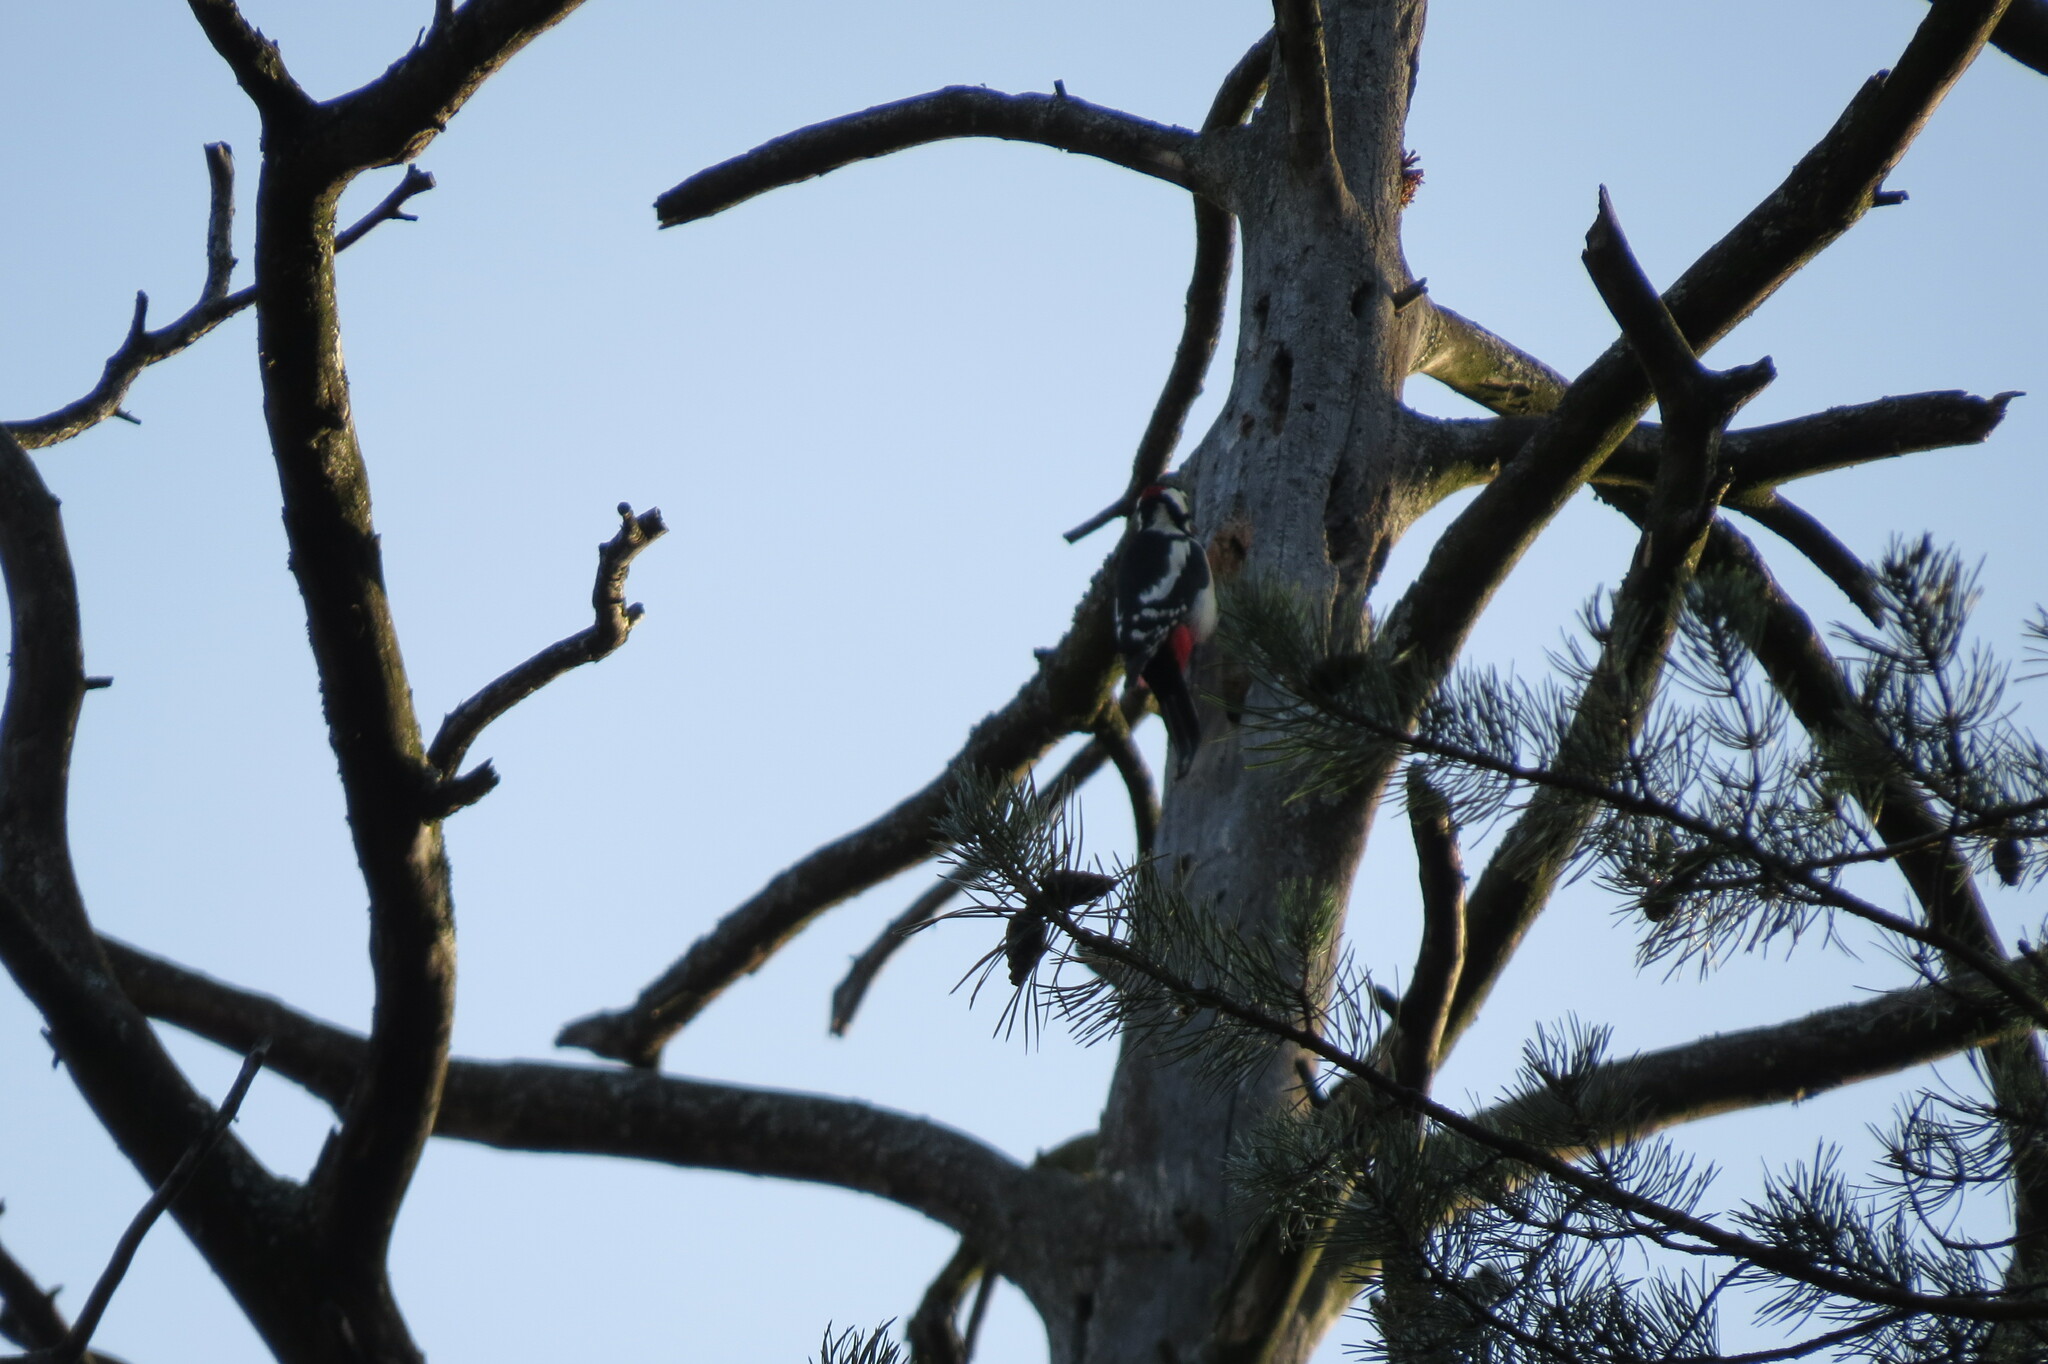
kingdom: Animalia
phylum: Chordata
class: Aves
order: Piciformes
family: Picidae
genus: Dendrocopos
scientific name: Dendrocopos major
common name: Great spotted woodpecker
